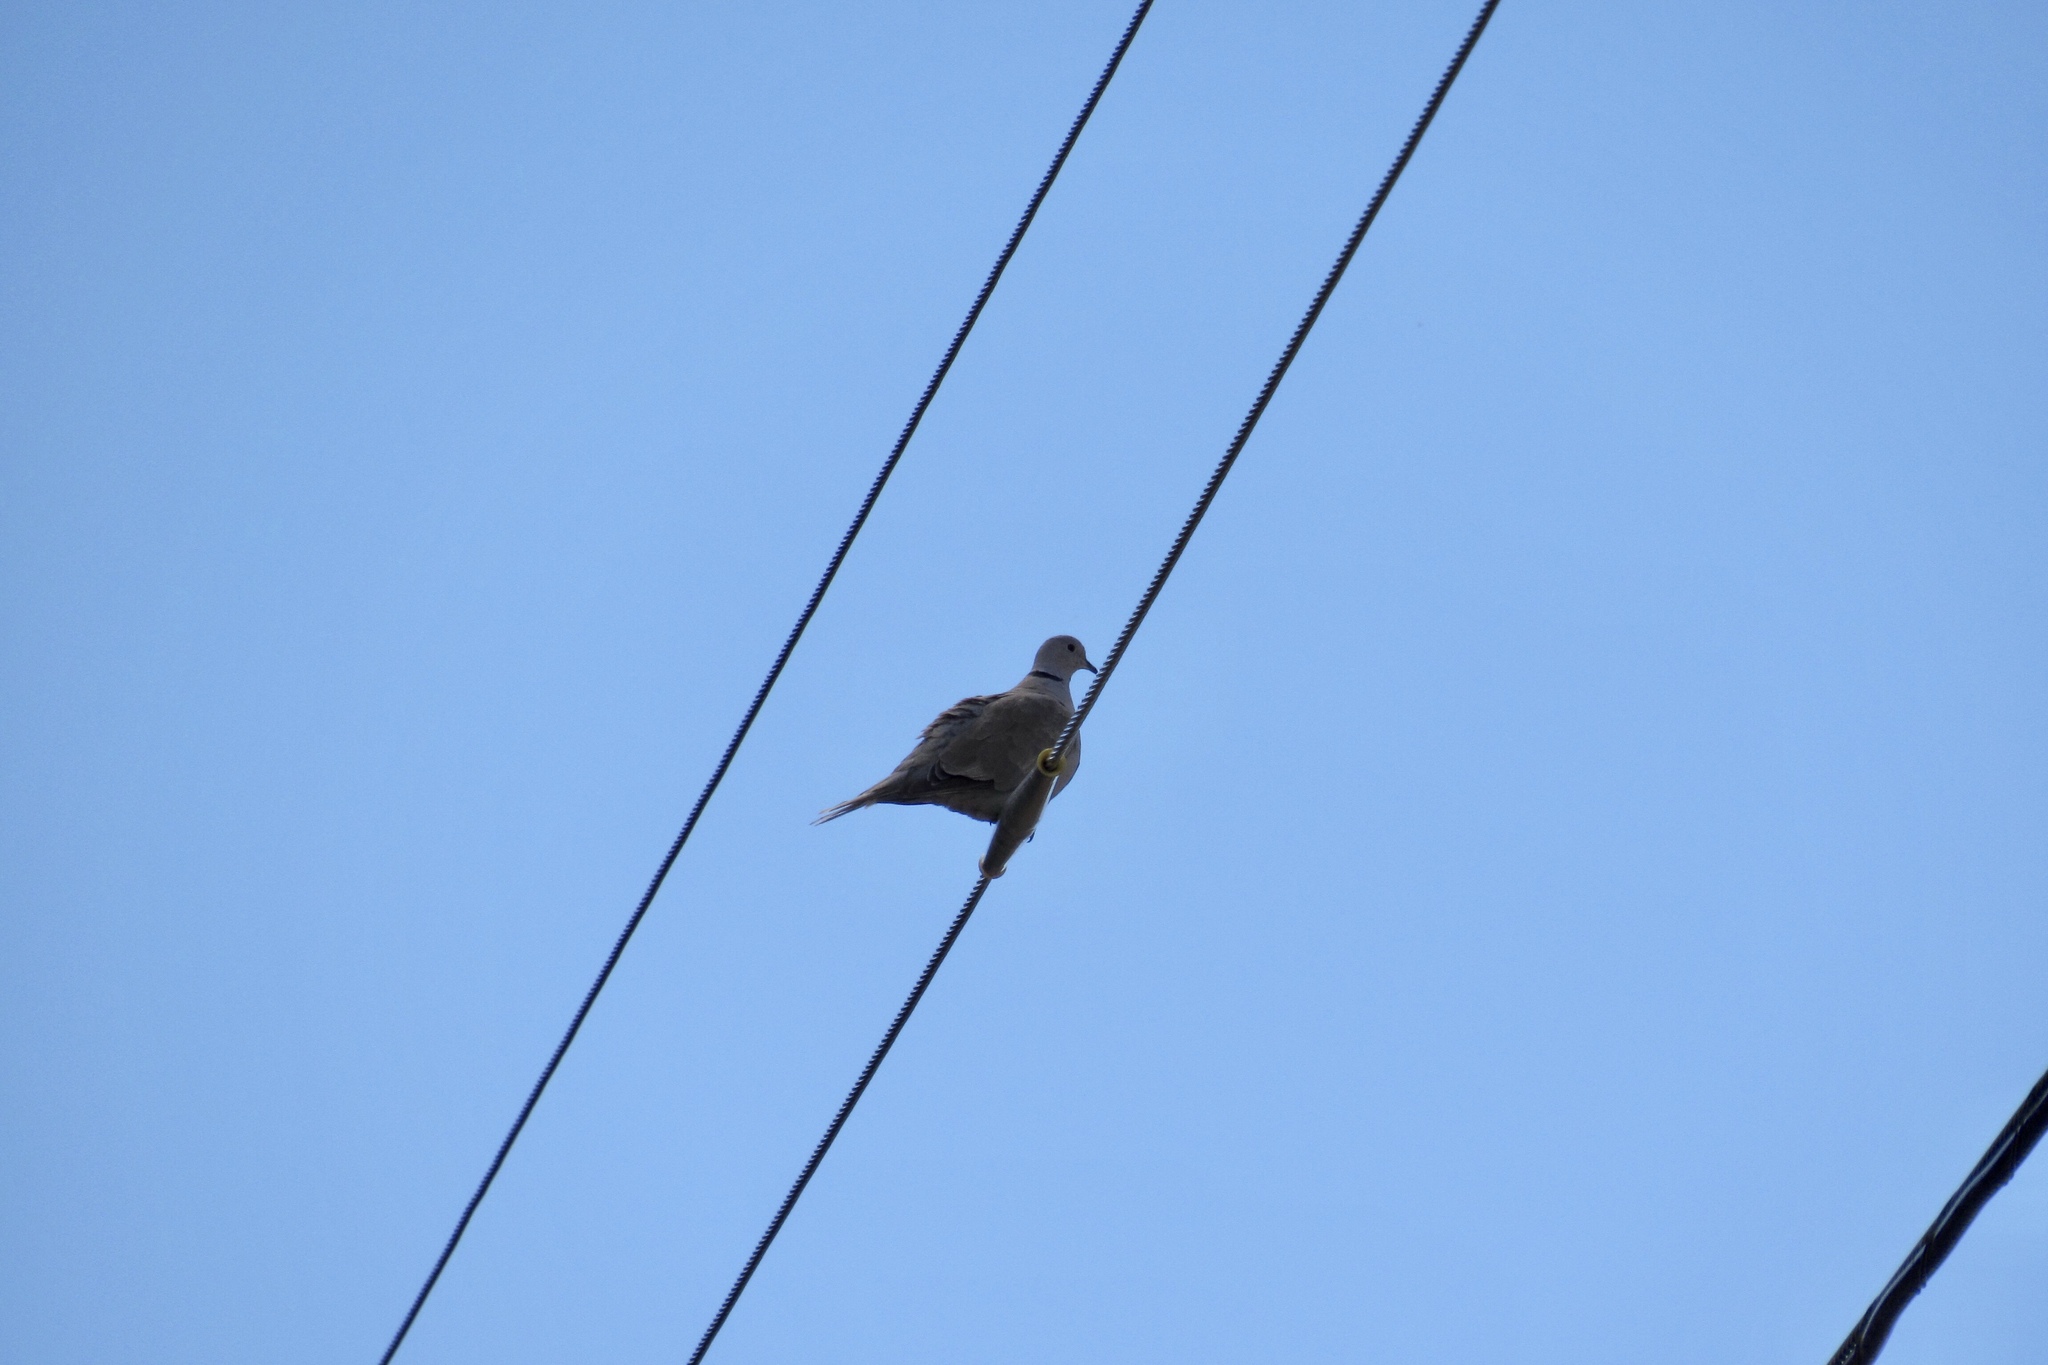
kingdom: Animalia
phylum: Chordata
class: Aves
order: Columbiformes
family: Columbidae
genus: Streptopelia
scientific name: Streptopelia decaocto
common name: Eurasian collared dove
